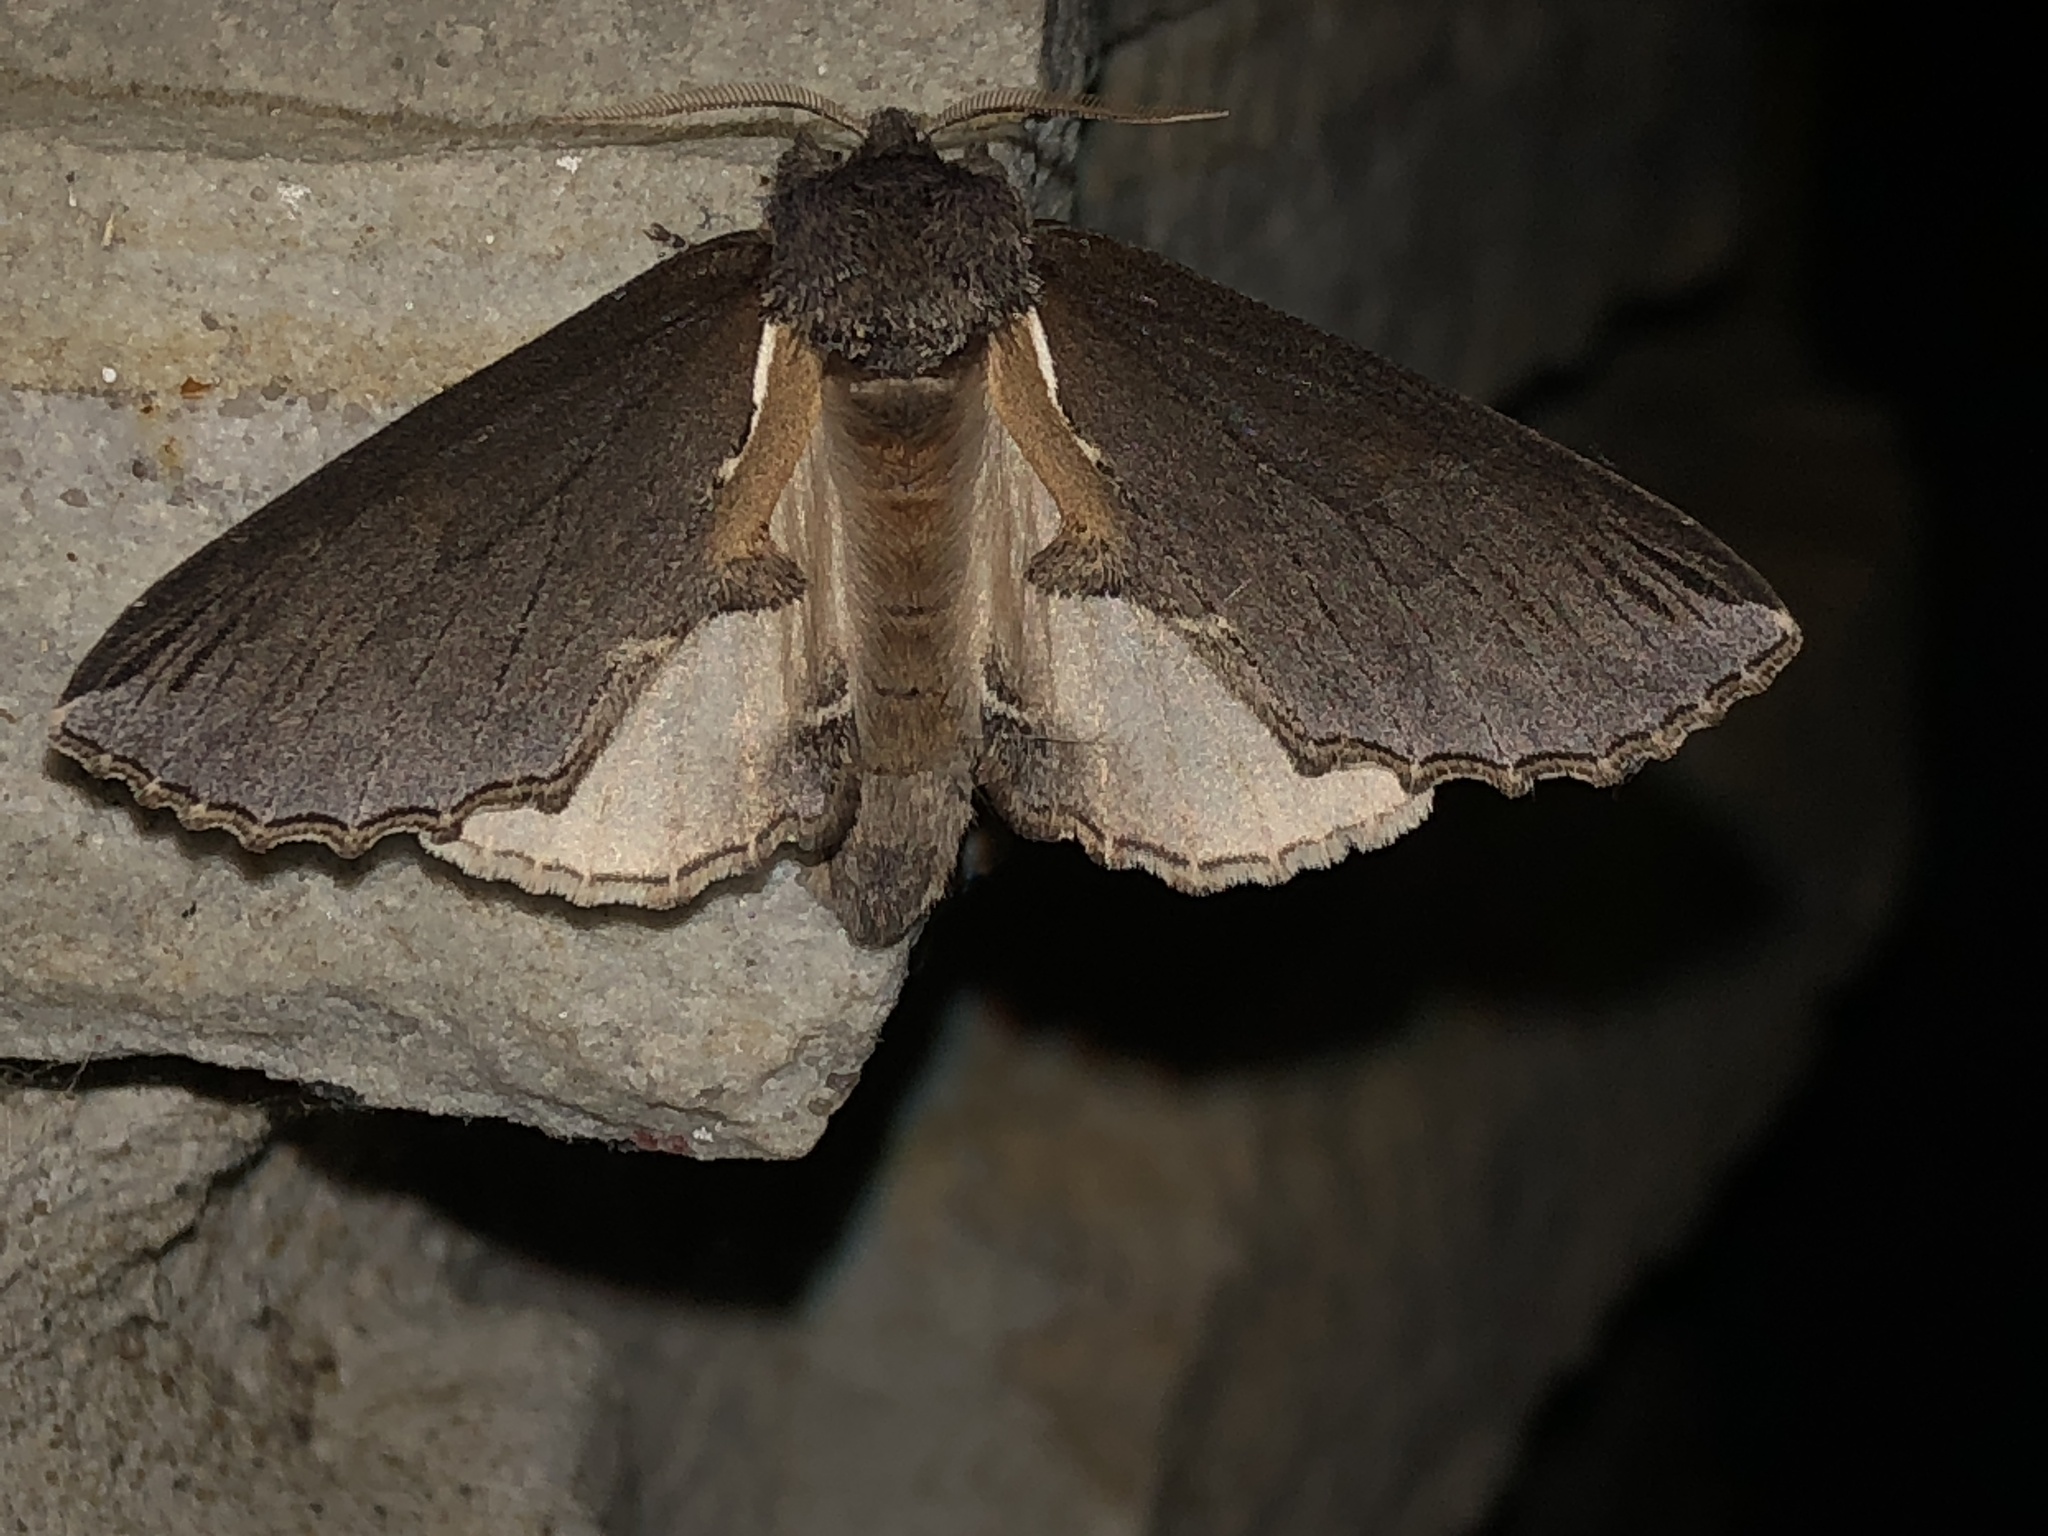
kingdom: Animalia
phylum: Arthropoda
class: Insecta
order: Lepidoptera
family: Notodontidae
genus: Pheosidea
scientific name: Pheosidea elegans
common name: Elegant prominent
